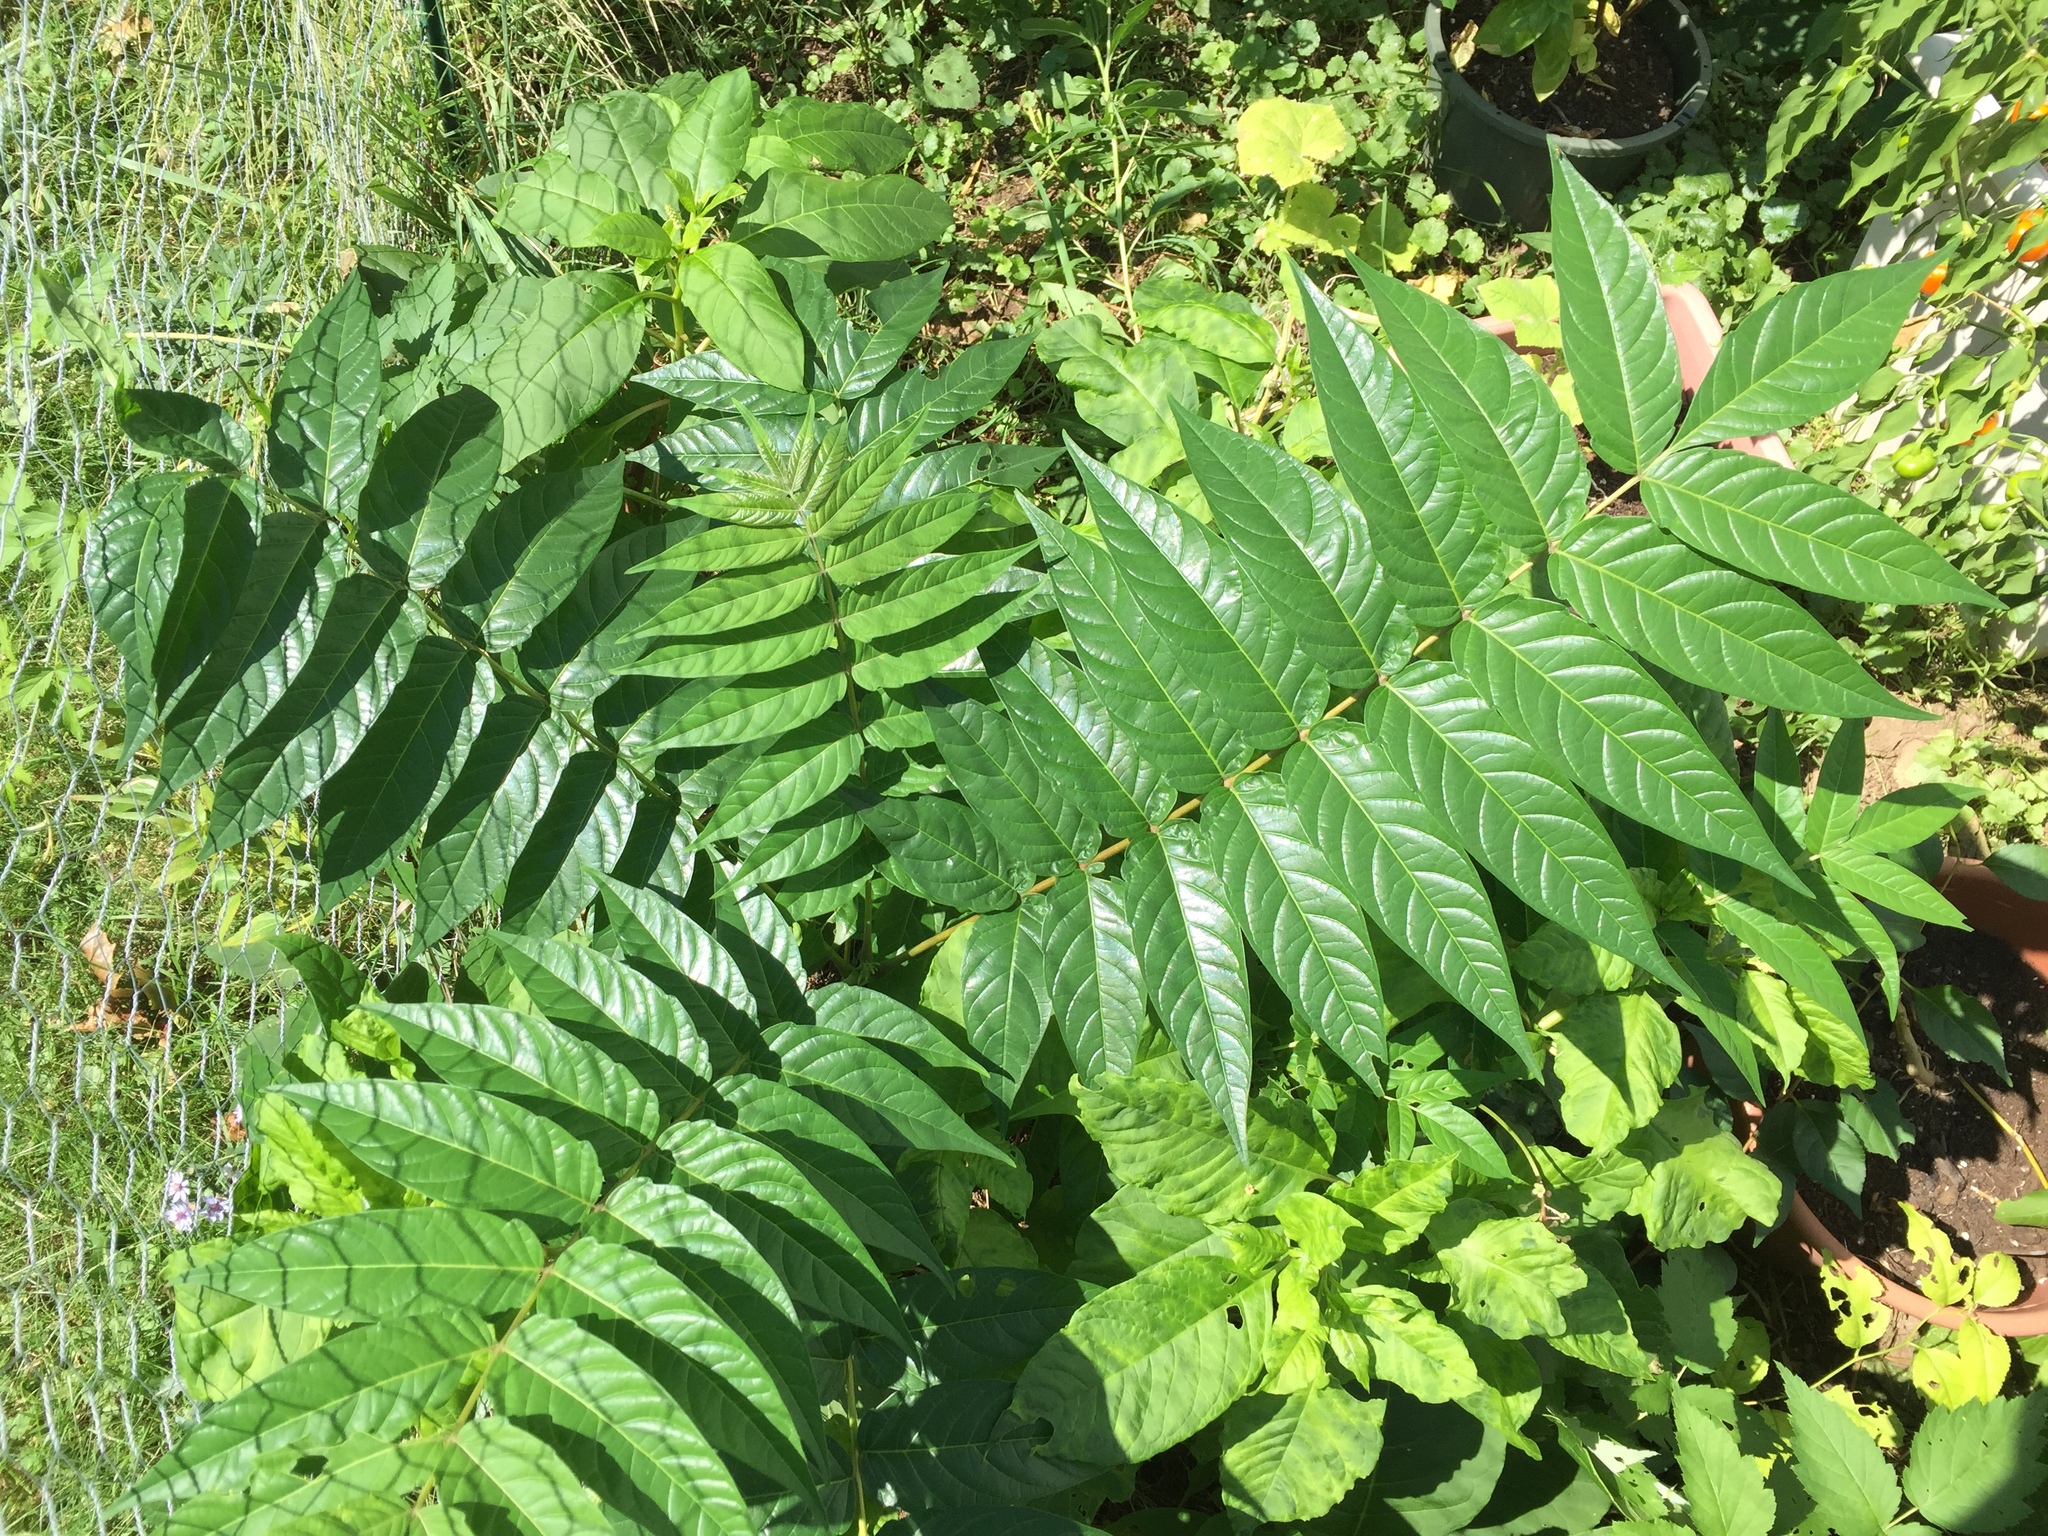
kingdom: Plantae
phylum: Tracheophyta
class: Magnoliopsida
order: Sapindales
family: Simaroubaceae
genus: Ailanthus
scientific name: Ailanthus altissima
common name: Tree-of-heaven
